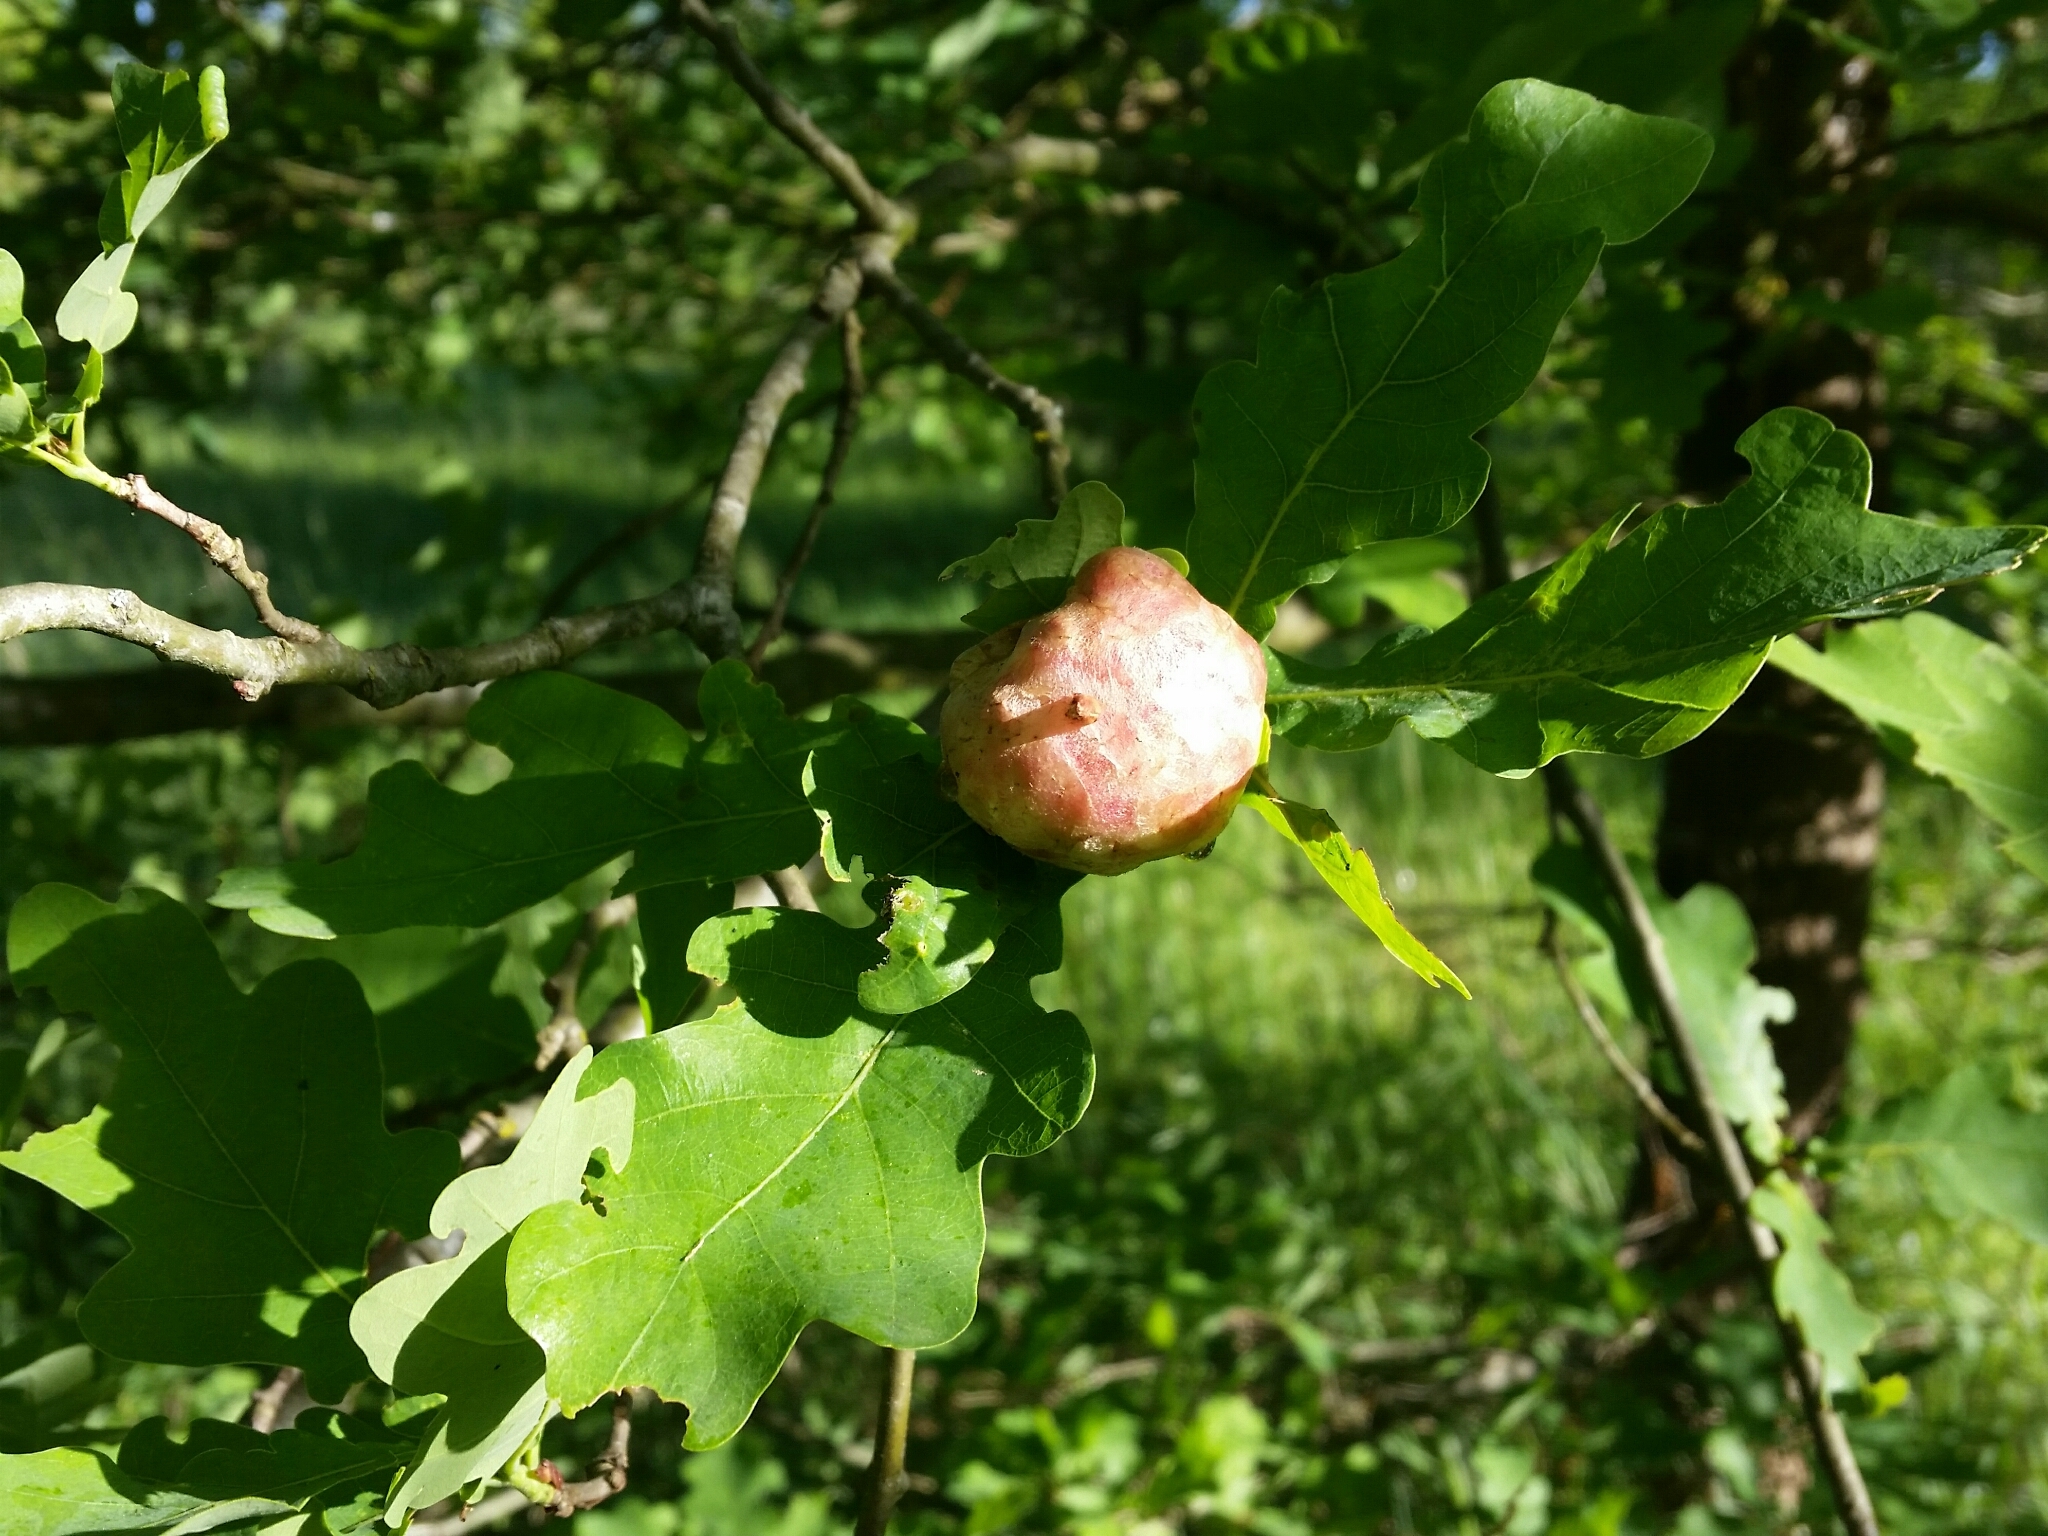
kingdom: Animalia
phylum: Arthropoda
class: Insecta
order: Hymenoptera
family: Cynipidae
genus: Biorhiza
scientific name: Biorhiza pallida
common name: Oak apple
